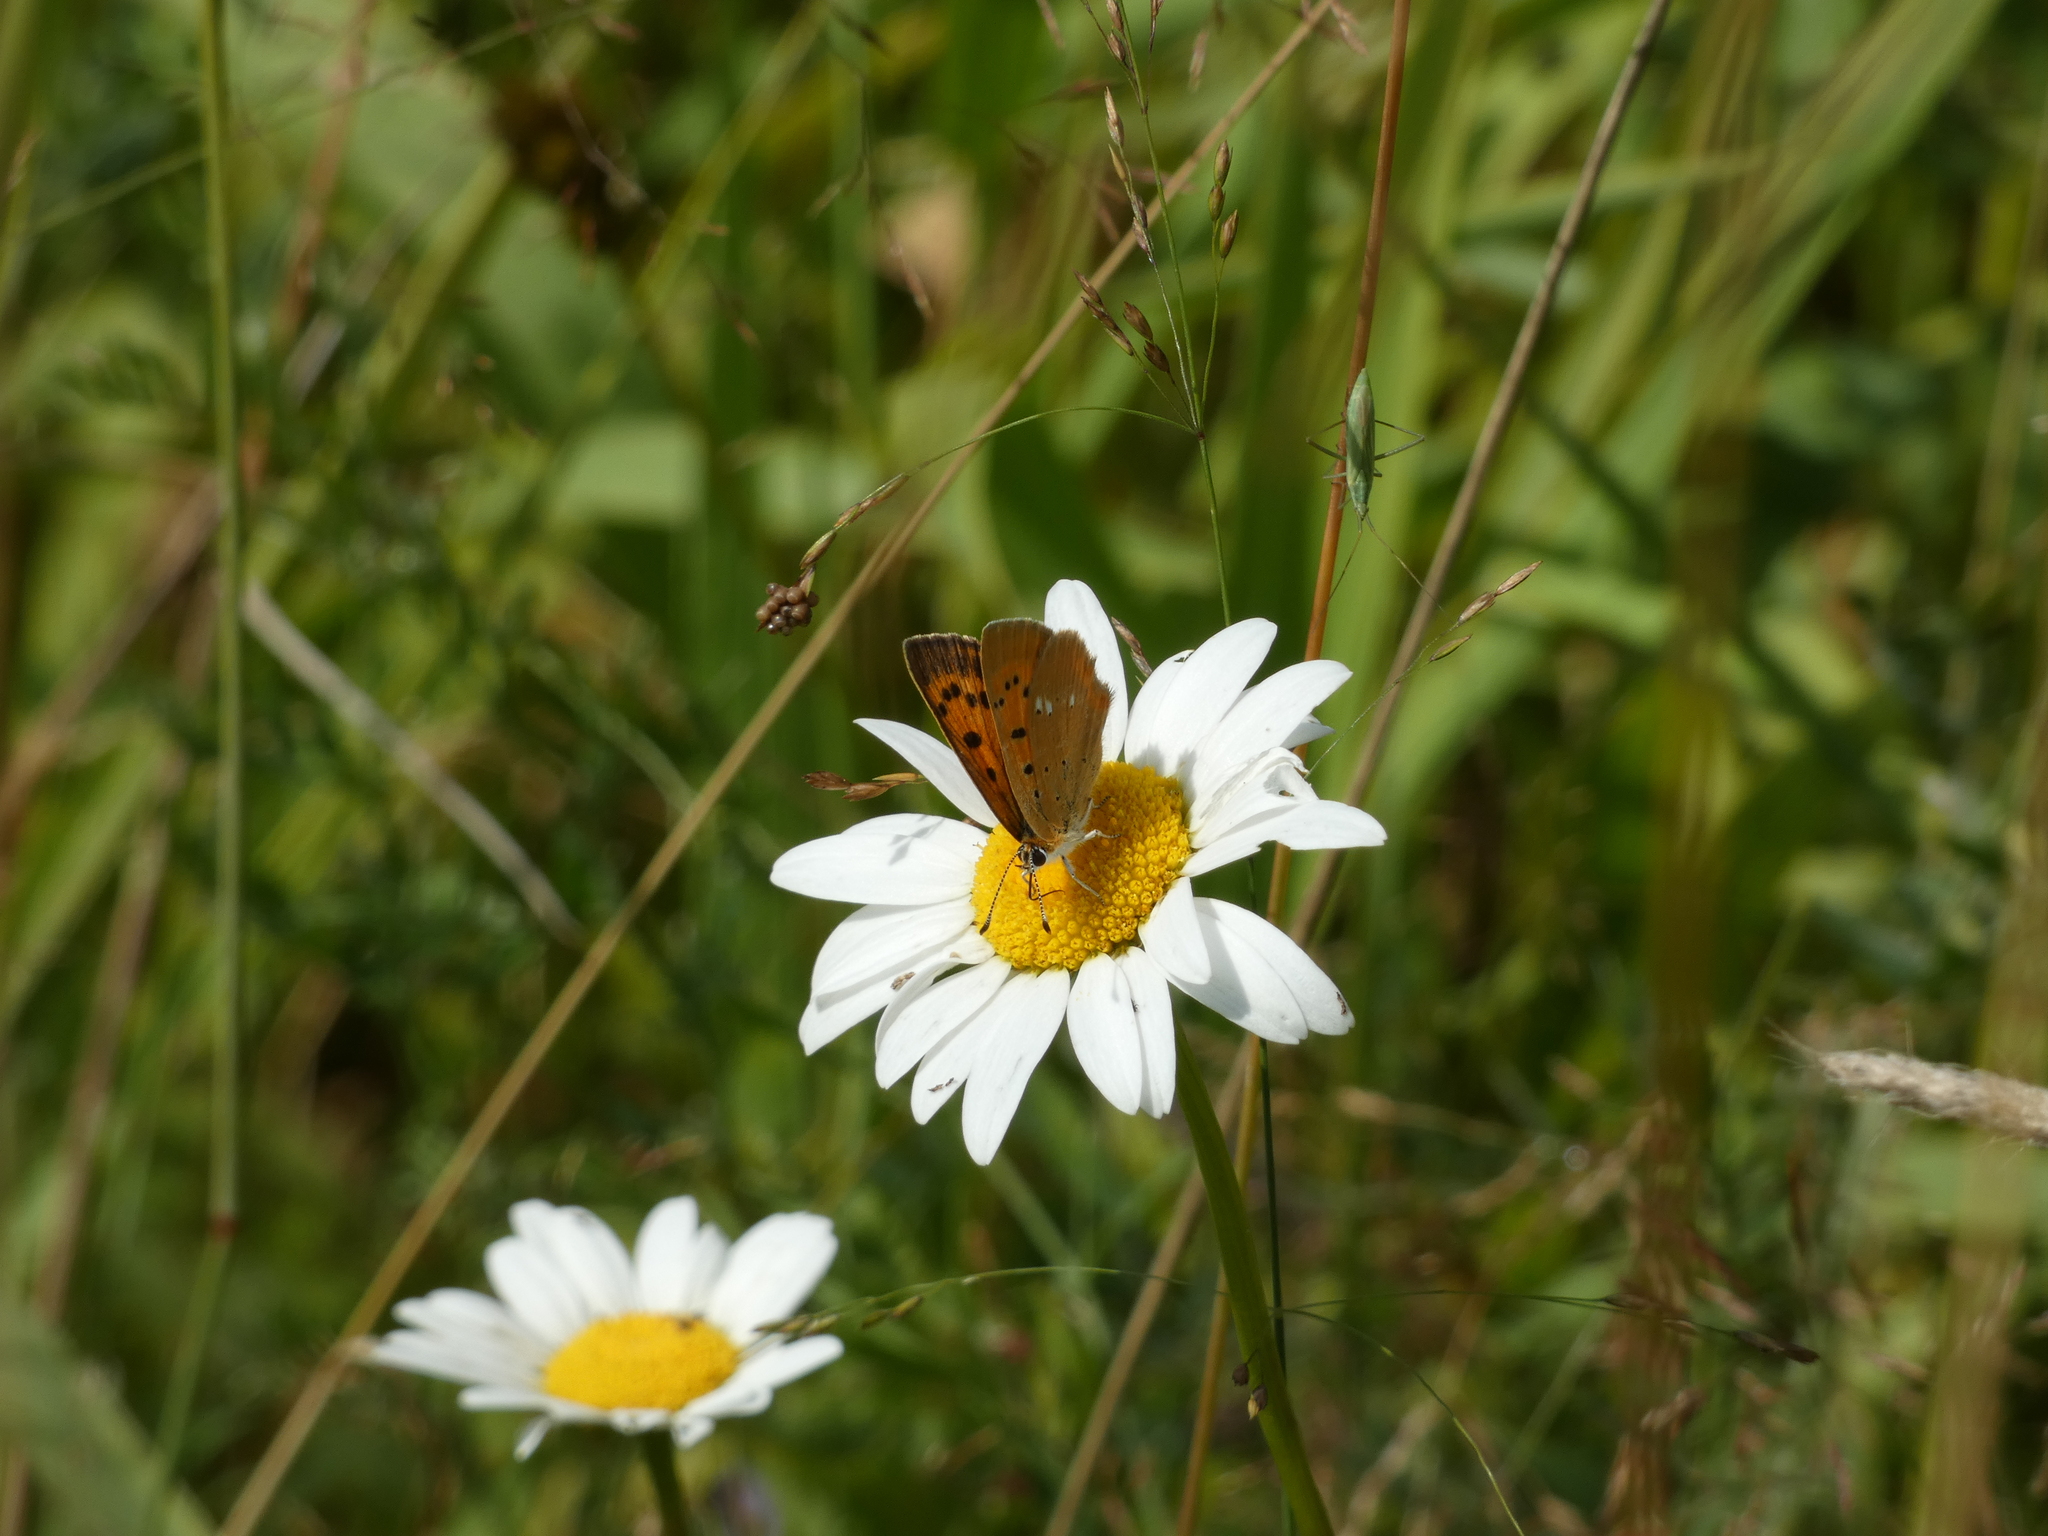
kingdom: Animalia
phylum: Arthropoda
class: Insecta
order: Lepidoptera
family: Lycaenidae
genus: Lycaena
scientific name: Lycaena virgaureae
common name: Scarce copper
